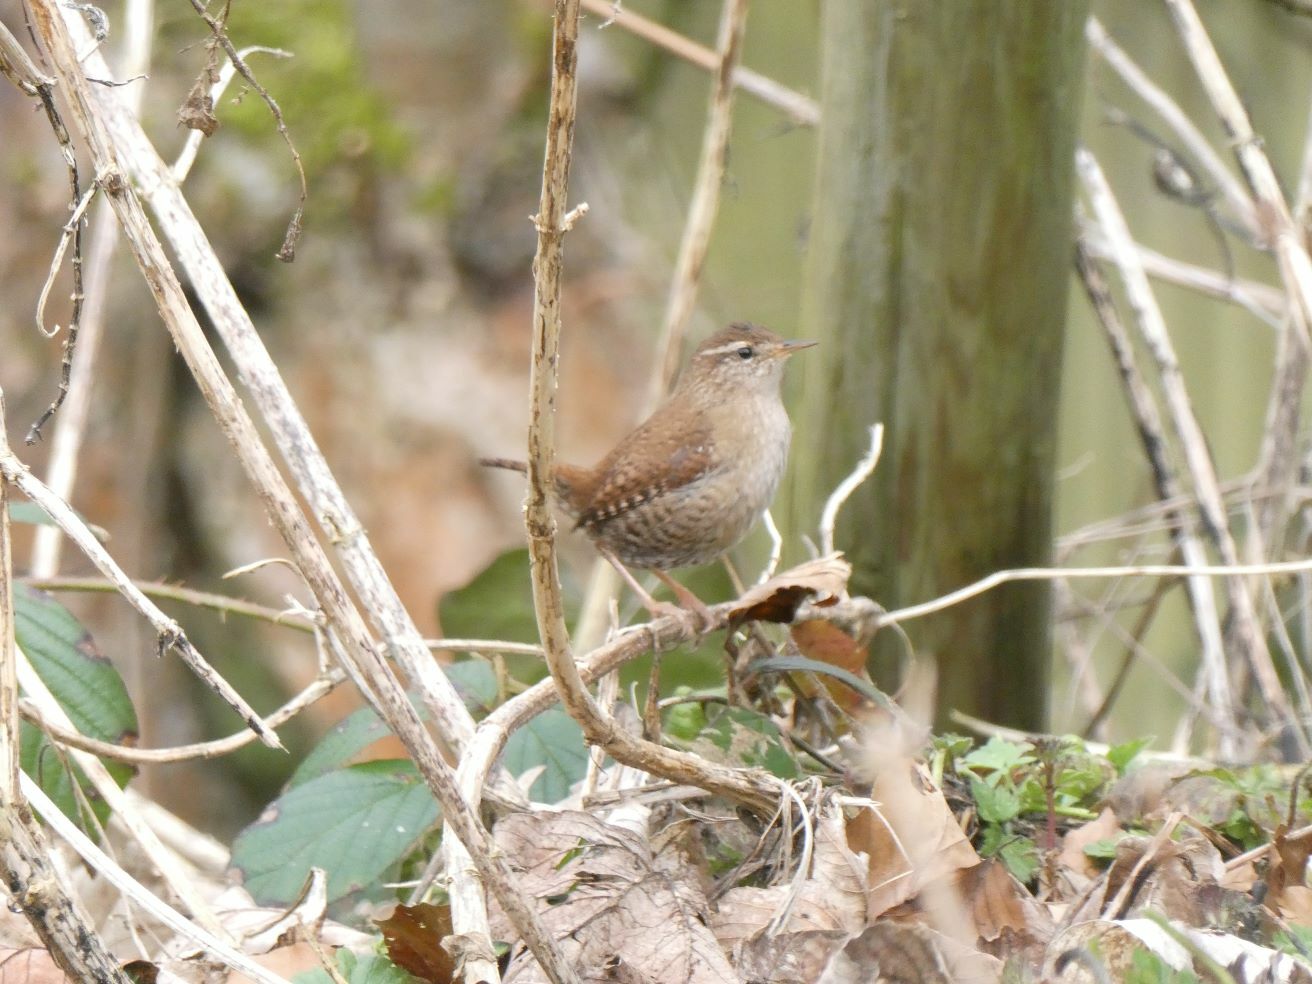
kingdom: Animalia
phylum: Chordata
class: Aves
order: Passeriformes
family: Troglodytidae
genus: Troglodytes
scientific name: Troglodytes troglodytes
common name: Eurasian wren
